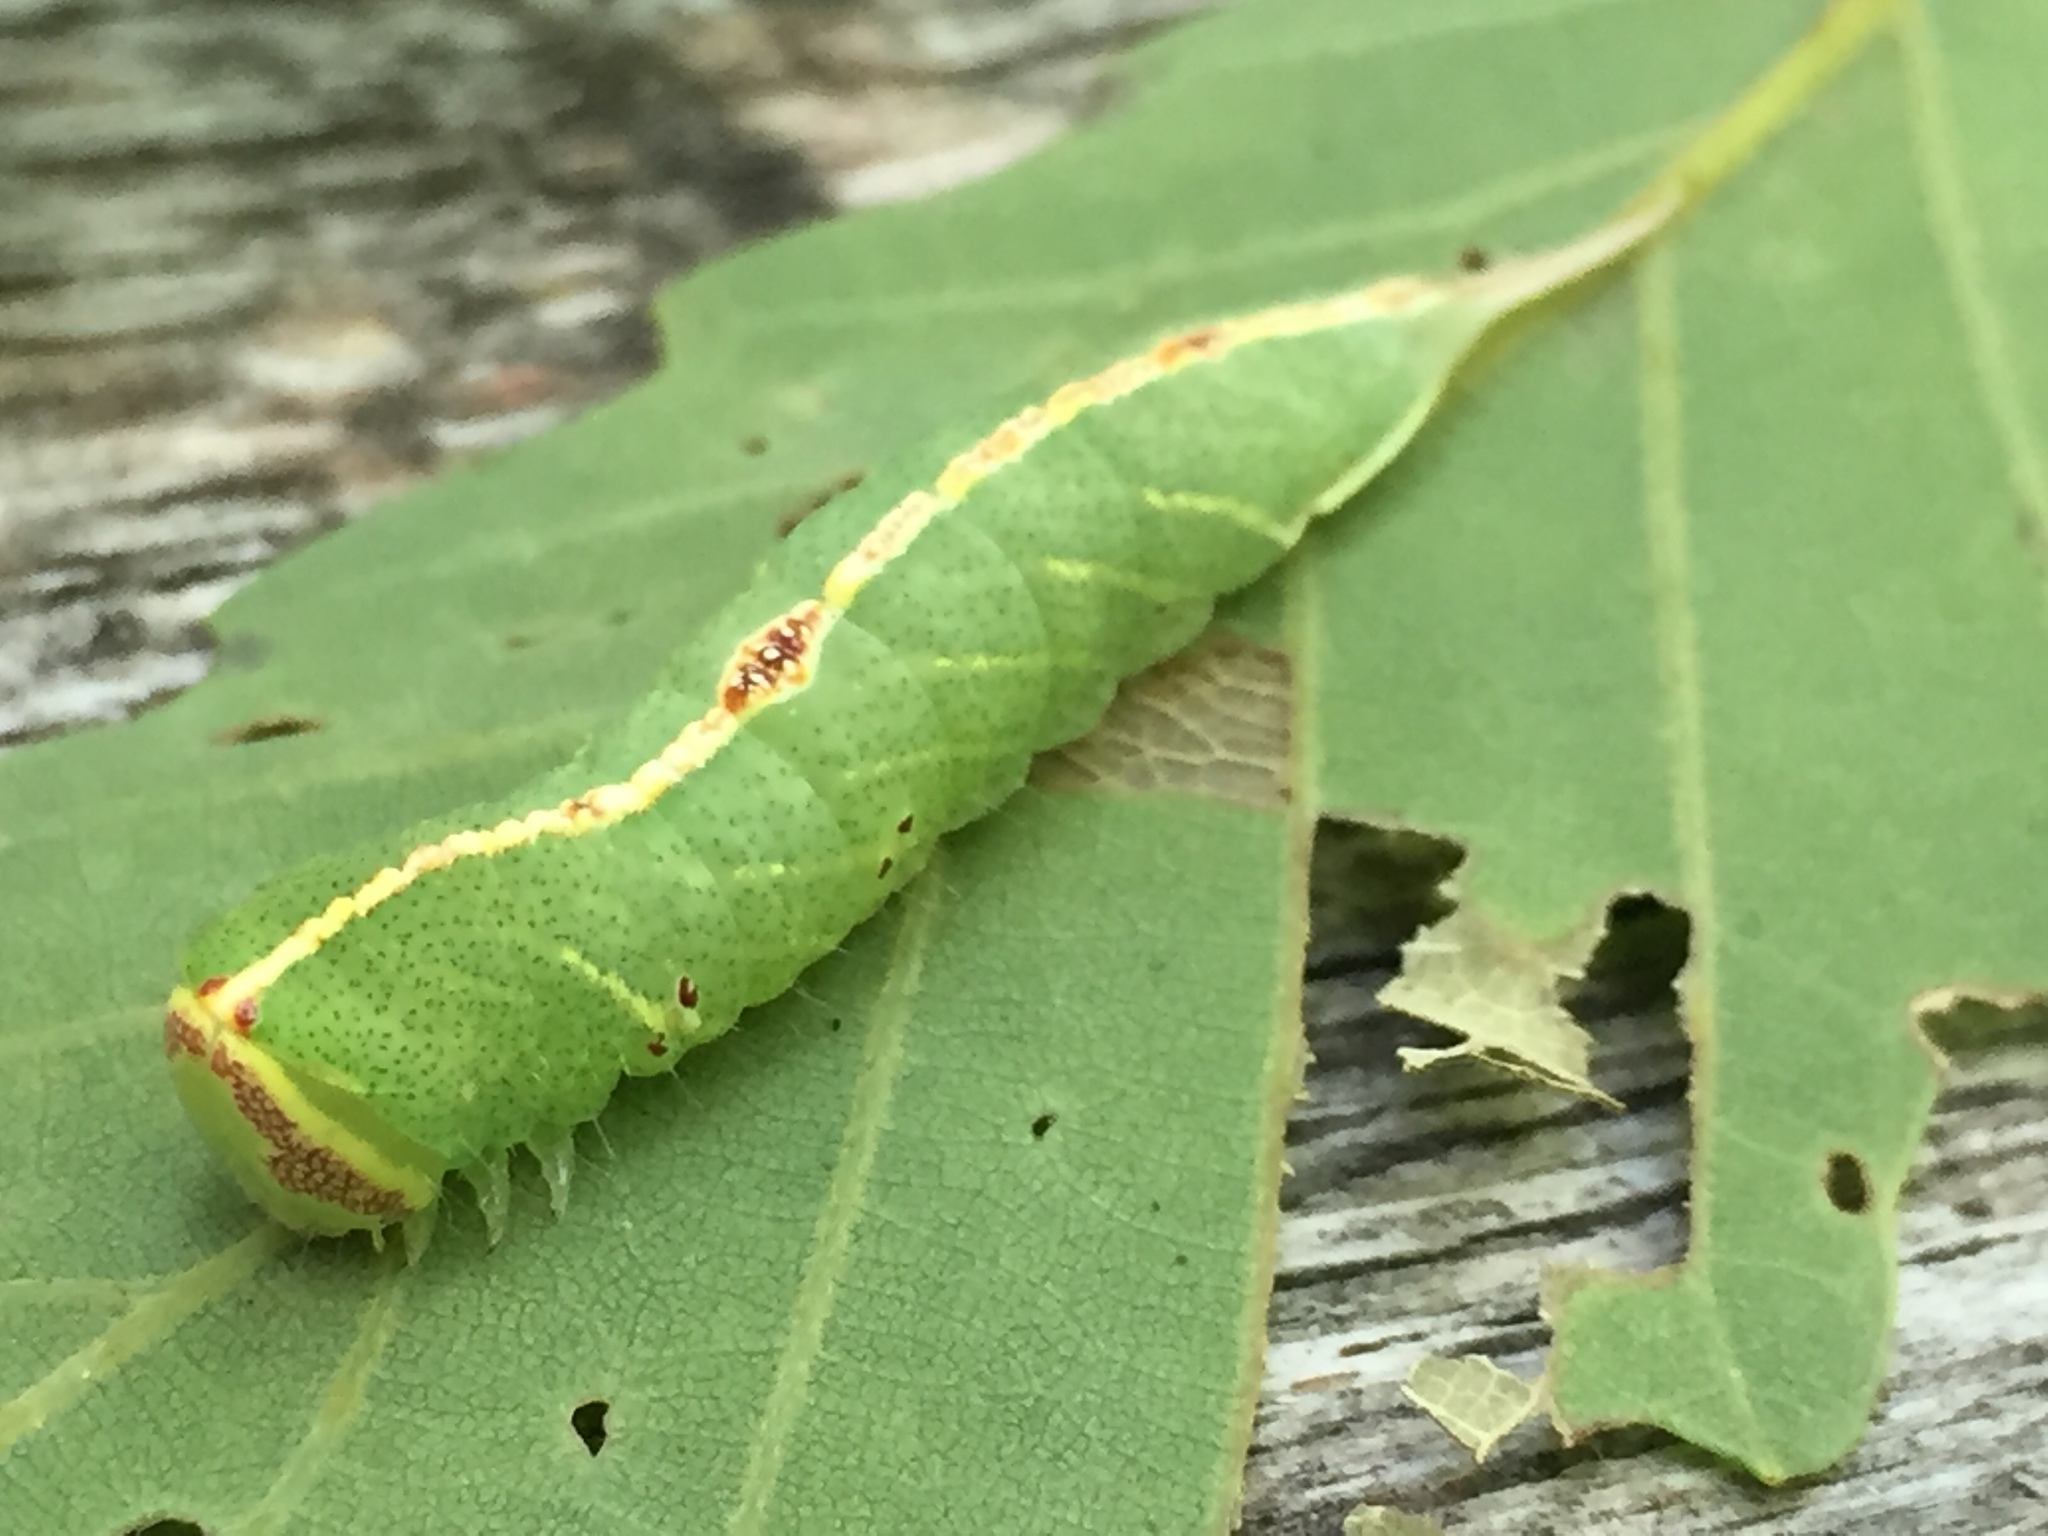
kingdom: Animalia
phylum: Arthropoda
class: Insecta
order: Lepidoptera
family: Notodontidae
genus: Macrurocampa
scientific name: Macrurocampa marthesia
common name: Mottled prominent
